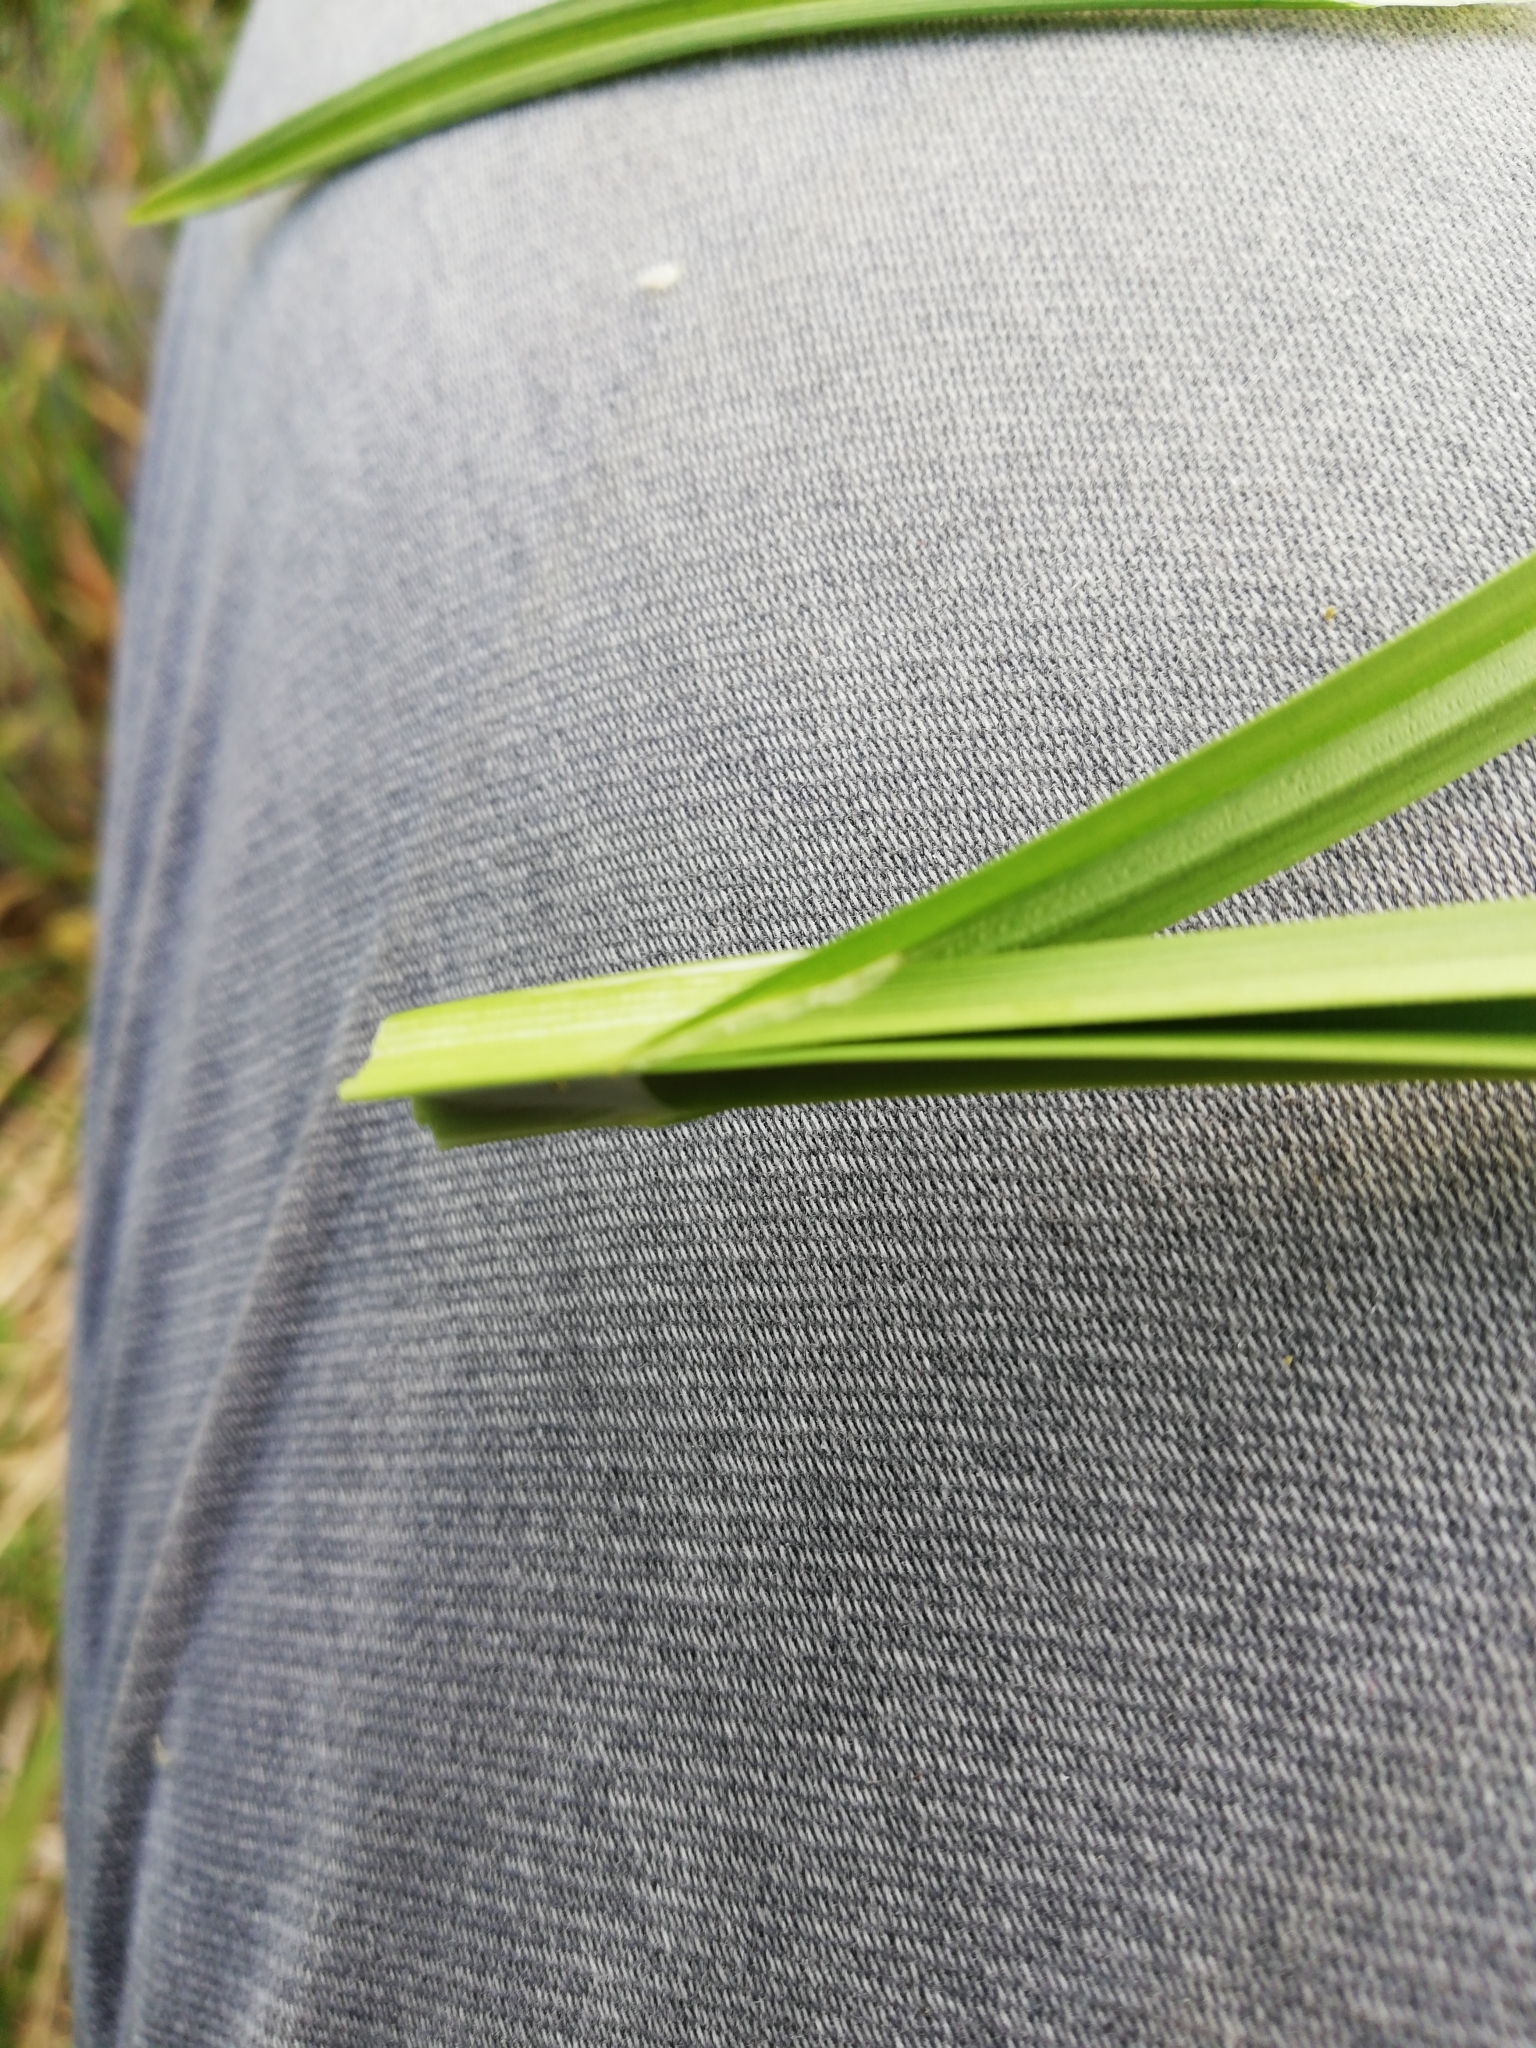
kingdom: Plantae
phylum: Tracheophyta
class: Liliopsida
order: Poales
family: Cyperaceae
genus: Carex
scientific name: Carex otrubae
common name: False fox-sedge
